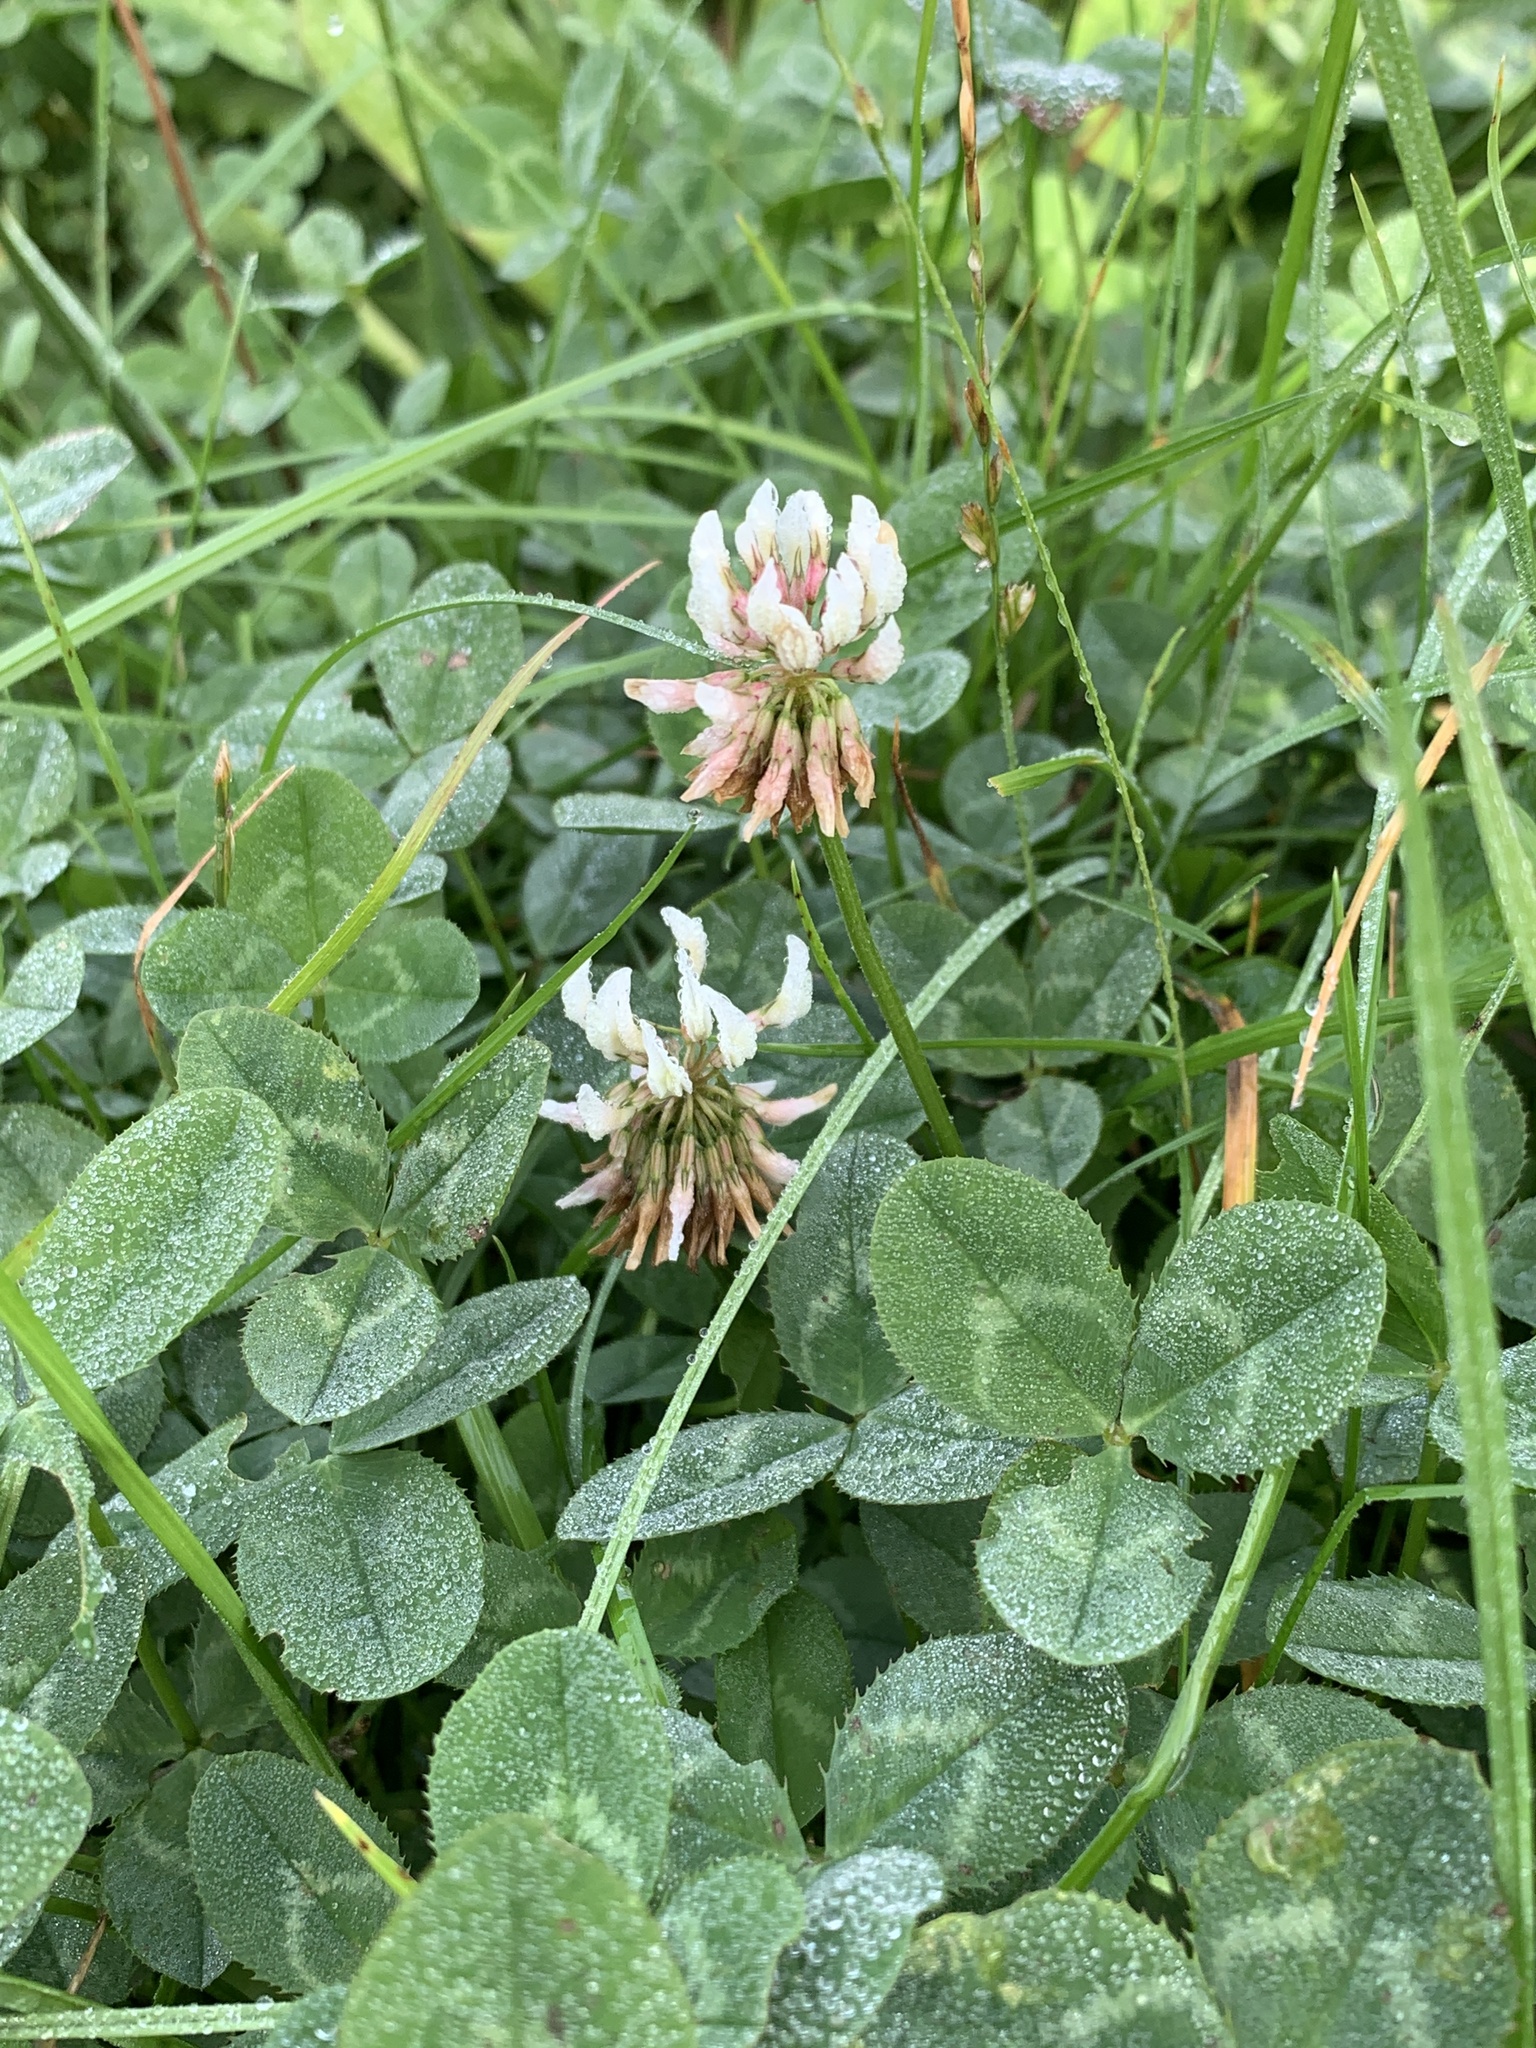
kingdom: Plantae
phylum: Tracheophyta
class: Magnoliopsida
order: Fabales
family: Fabaceae
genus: Trifolium
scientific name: Trifolium repens
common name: White clover
